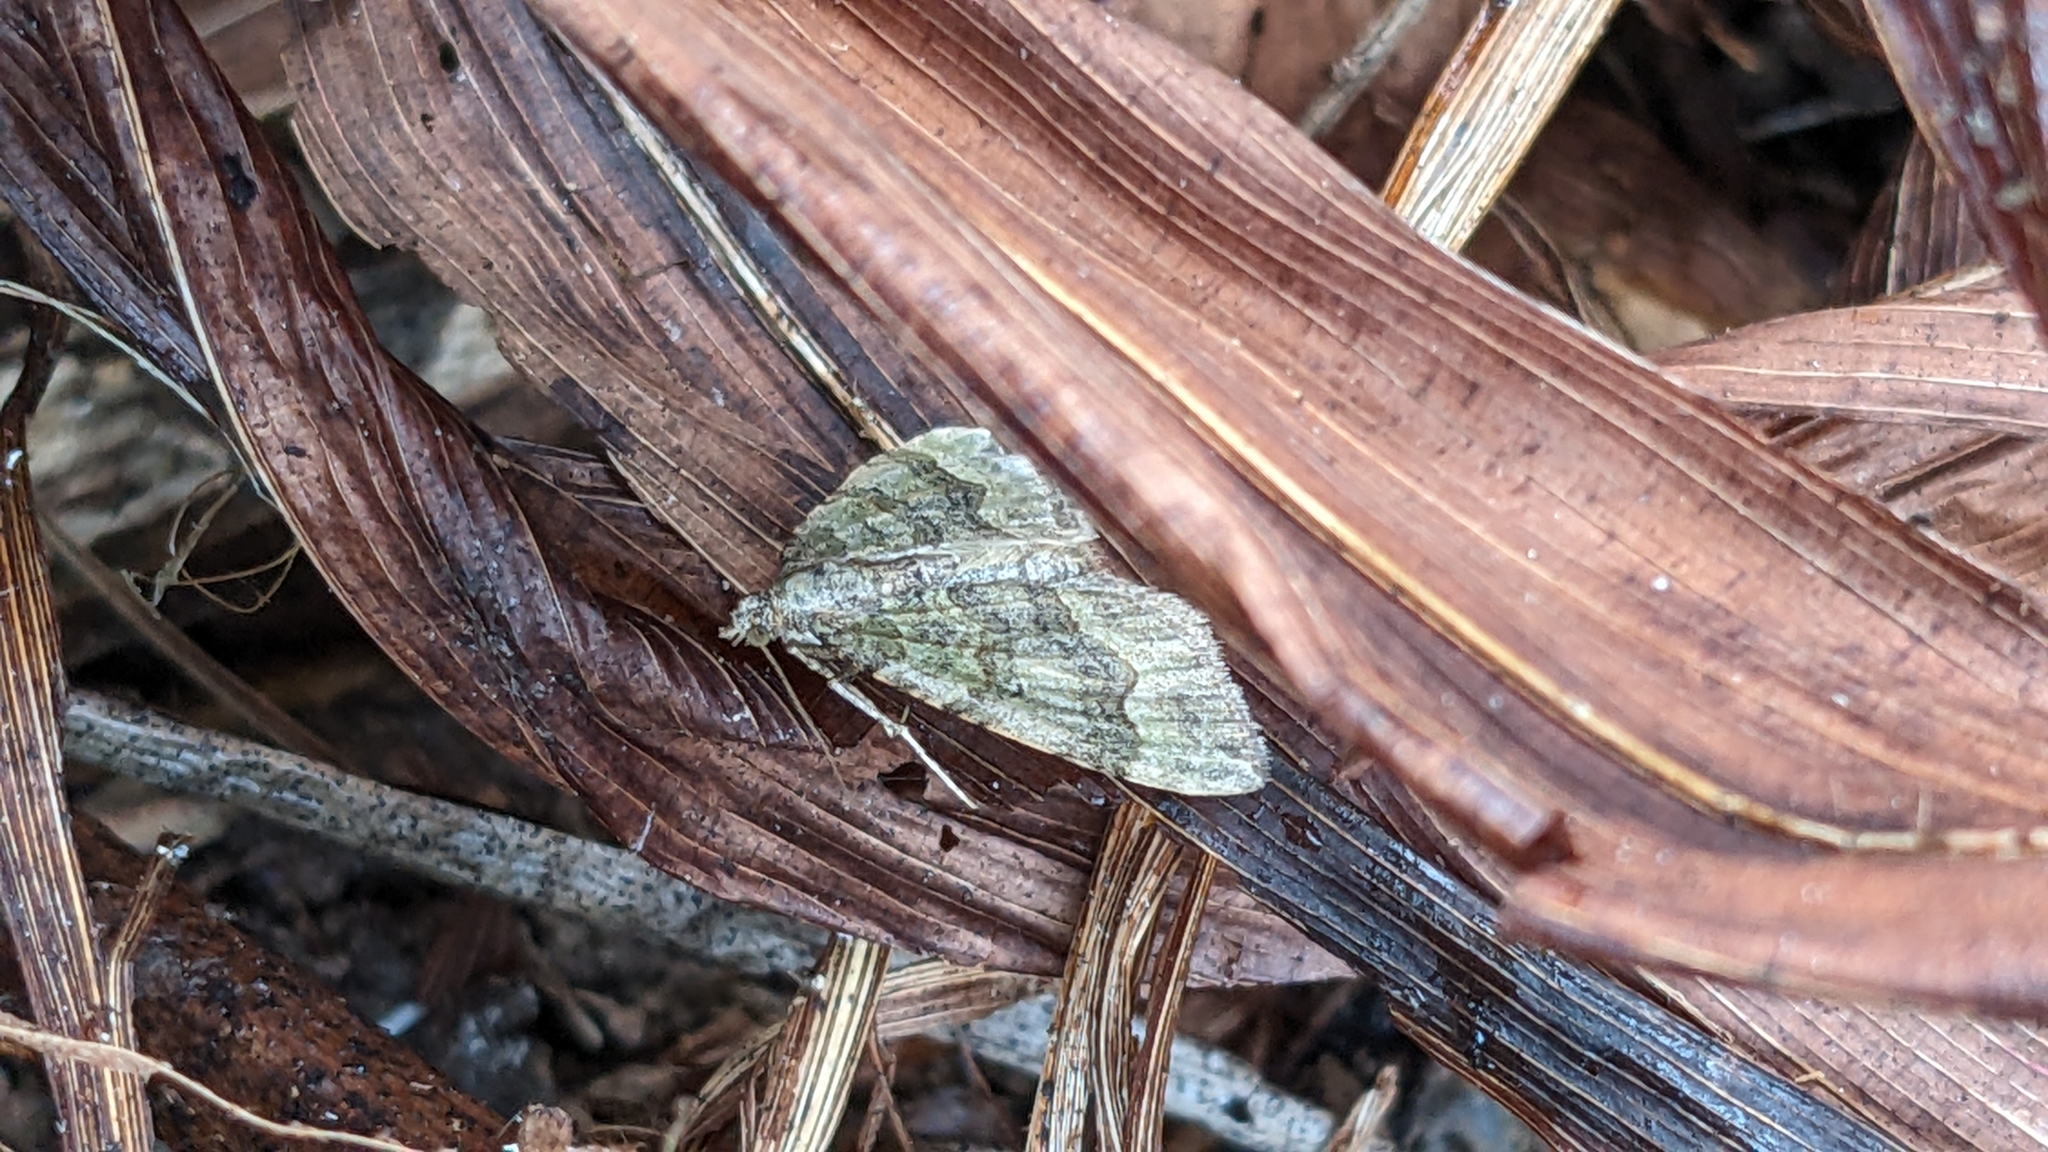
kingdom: Animalia
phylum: Arthropoda
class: Insecta
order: Lepidoptera
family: Geometridae
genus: Epyaxa
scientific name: Epyaxa rosearia
